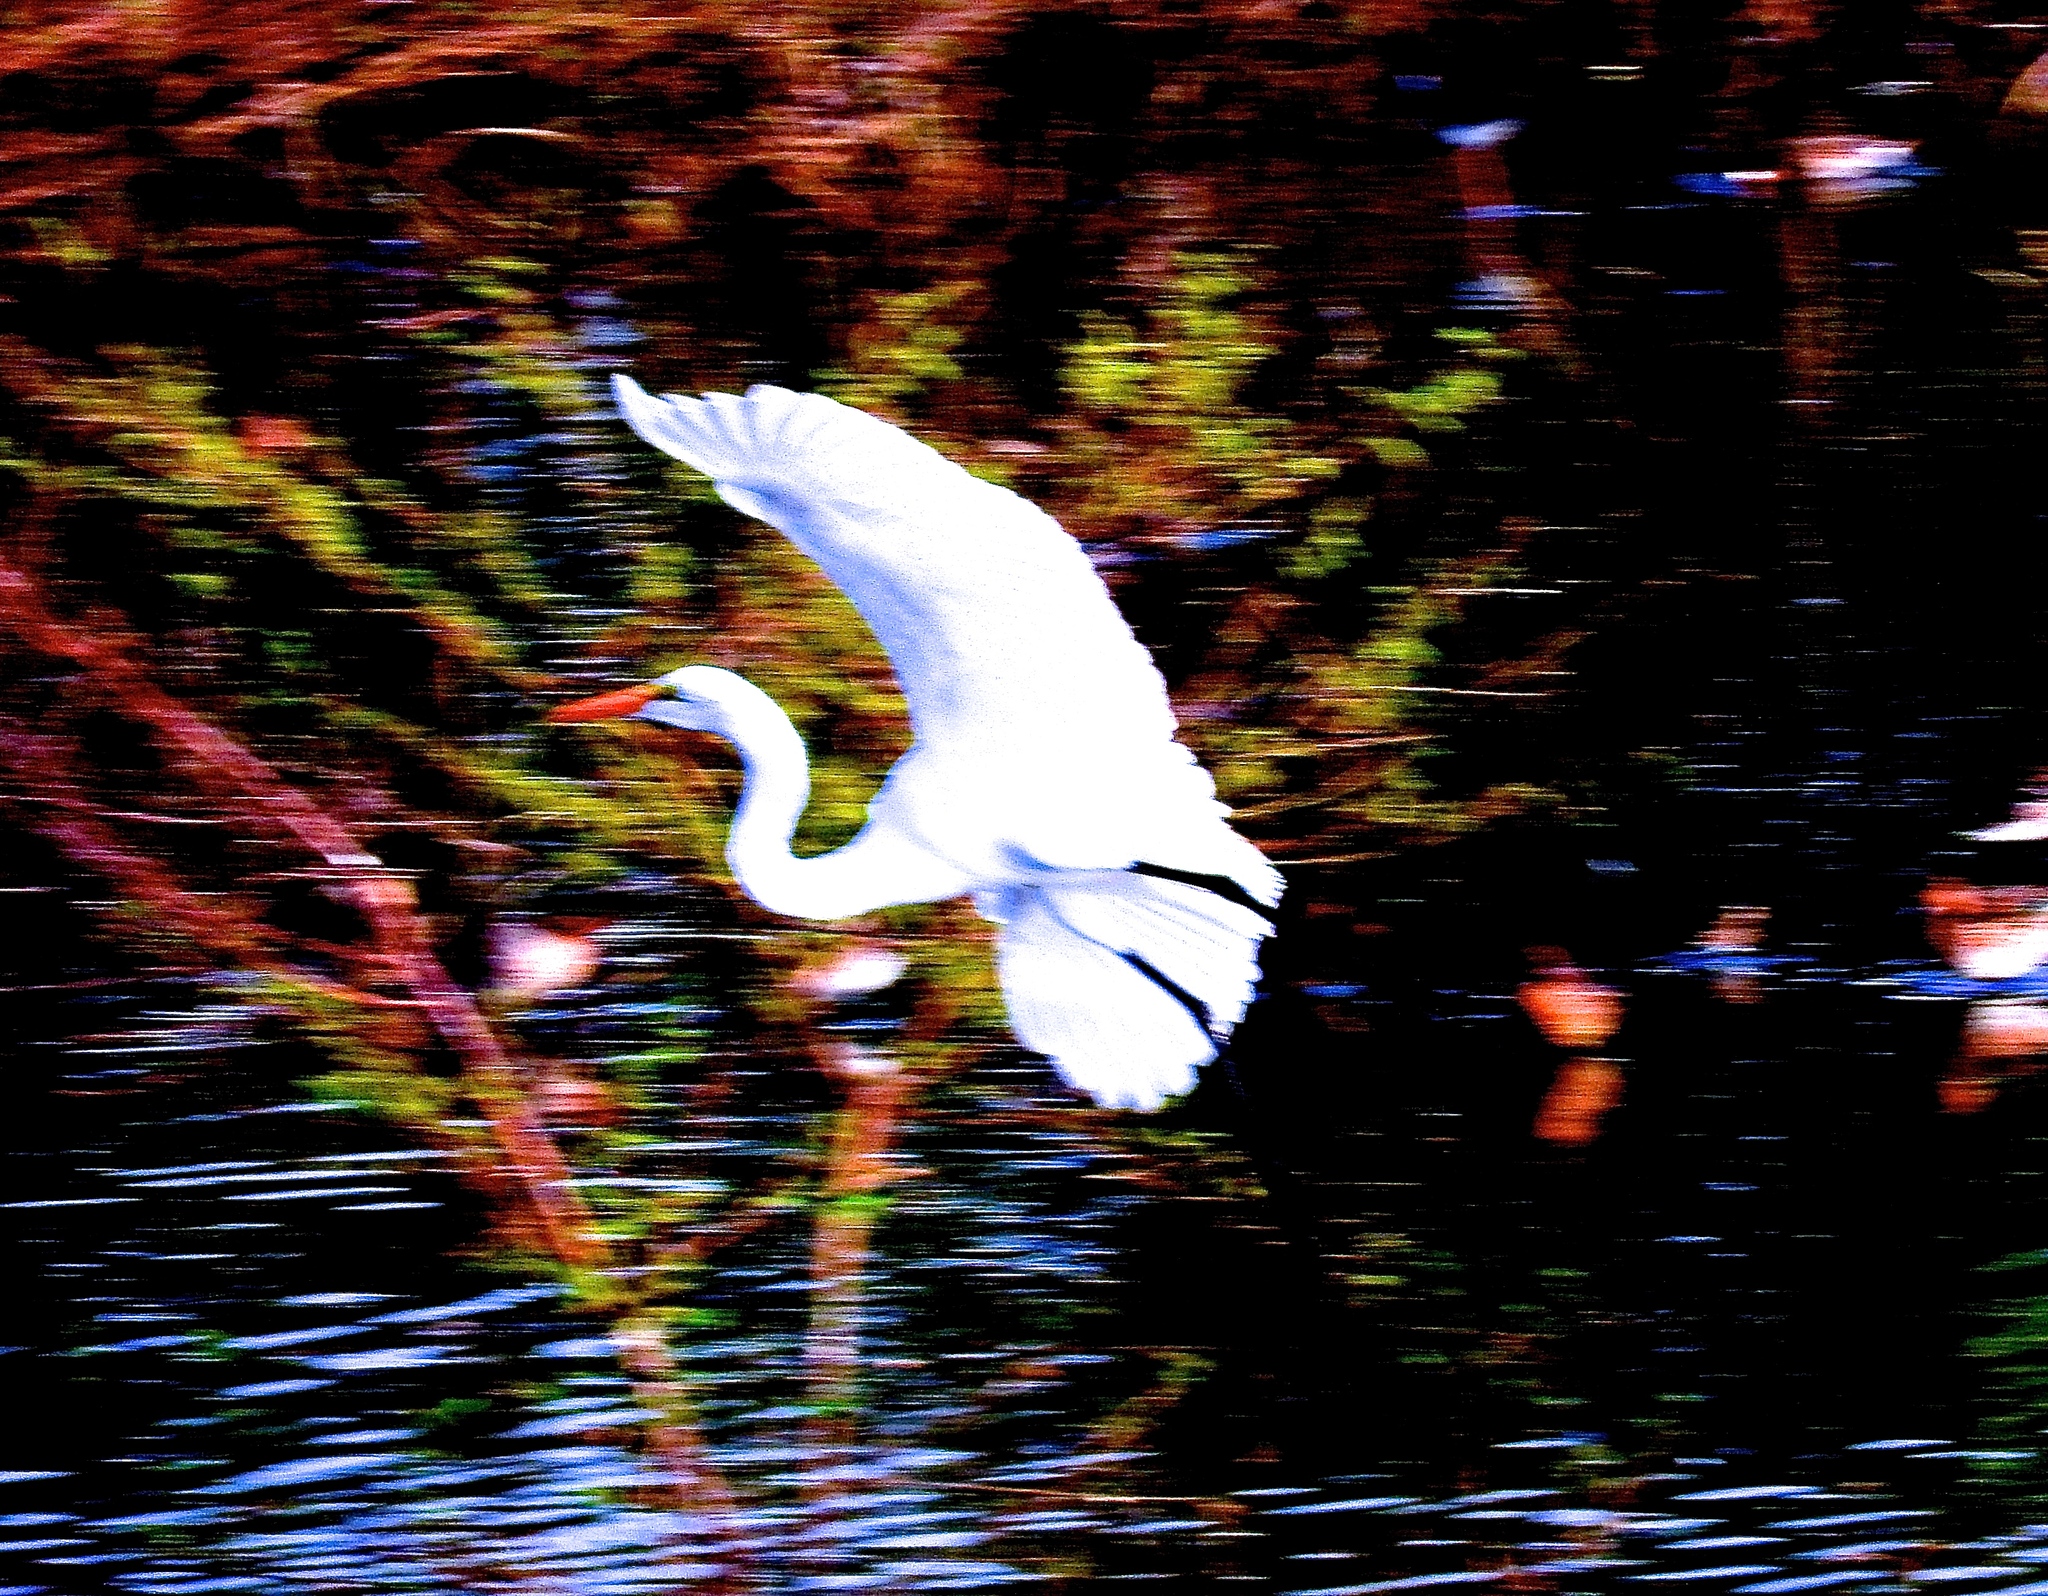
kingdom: Animalia
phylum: Chordata
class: Aves
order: Pelecaniformes
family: Ardeidae
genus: Ardea
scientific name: Ardea alba
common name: Great egret
